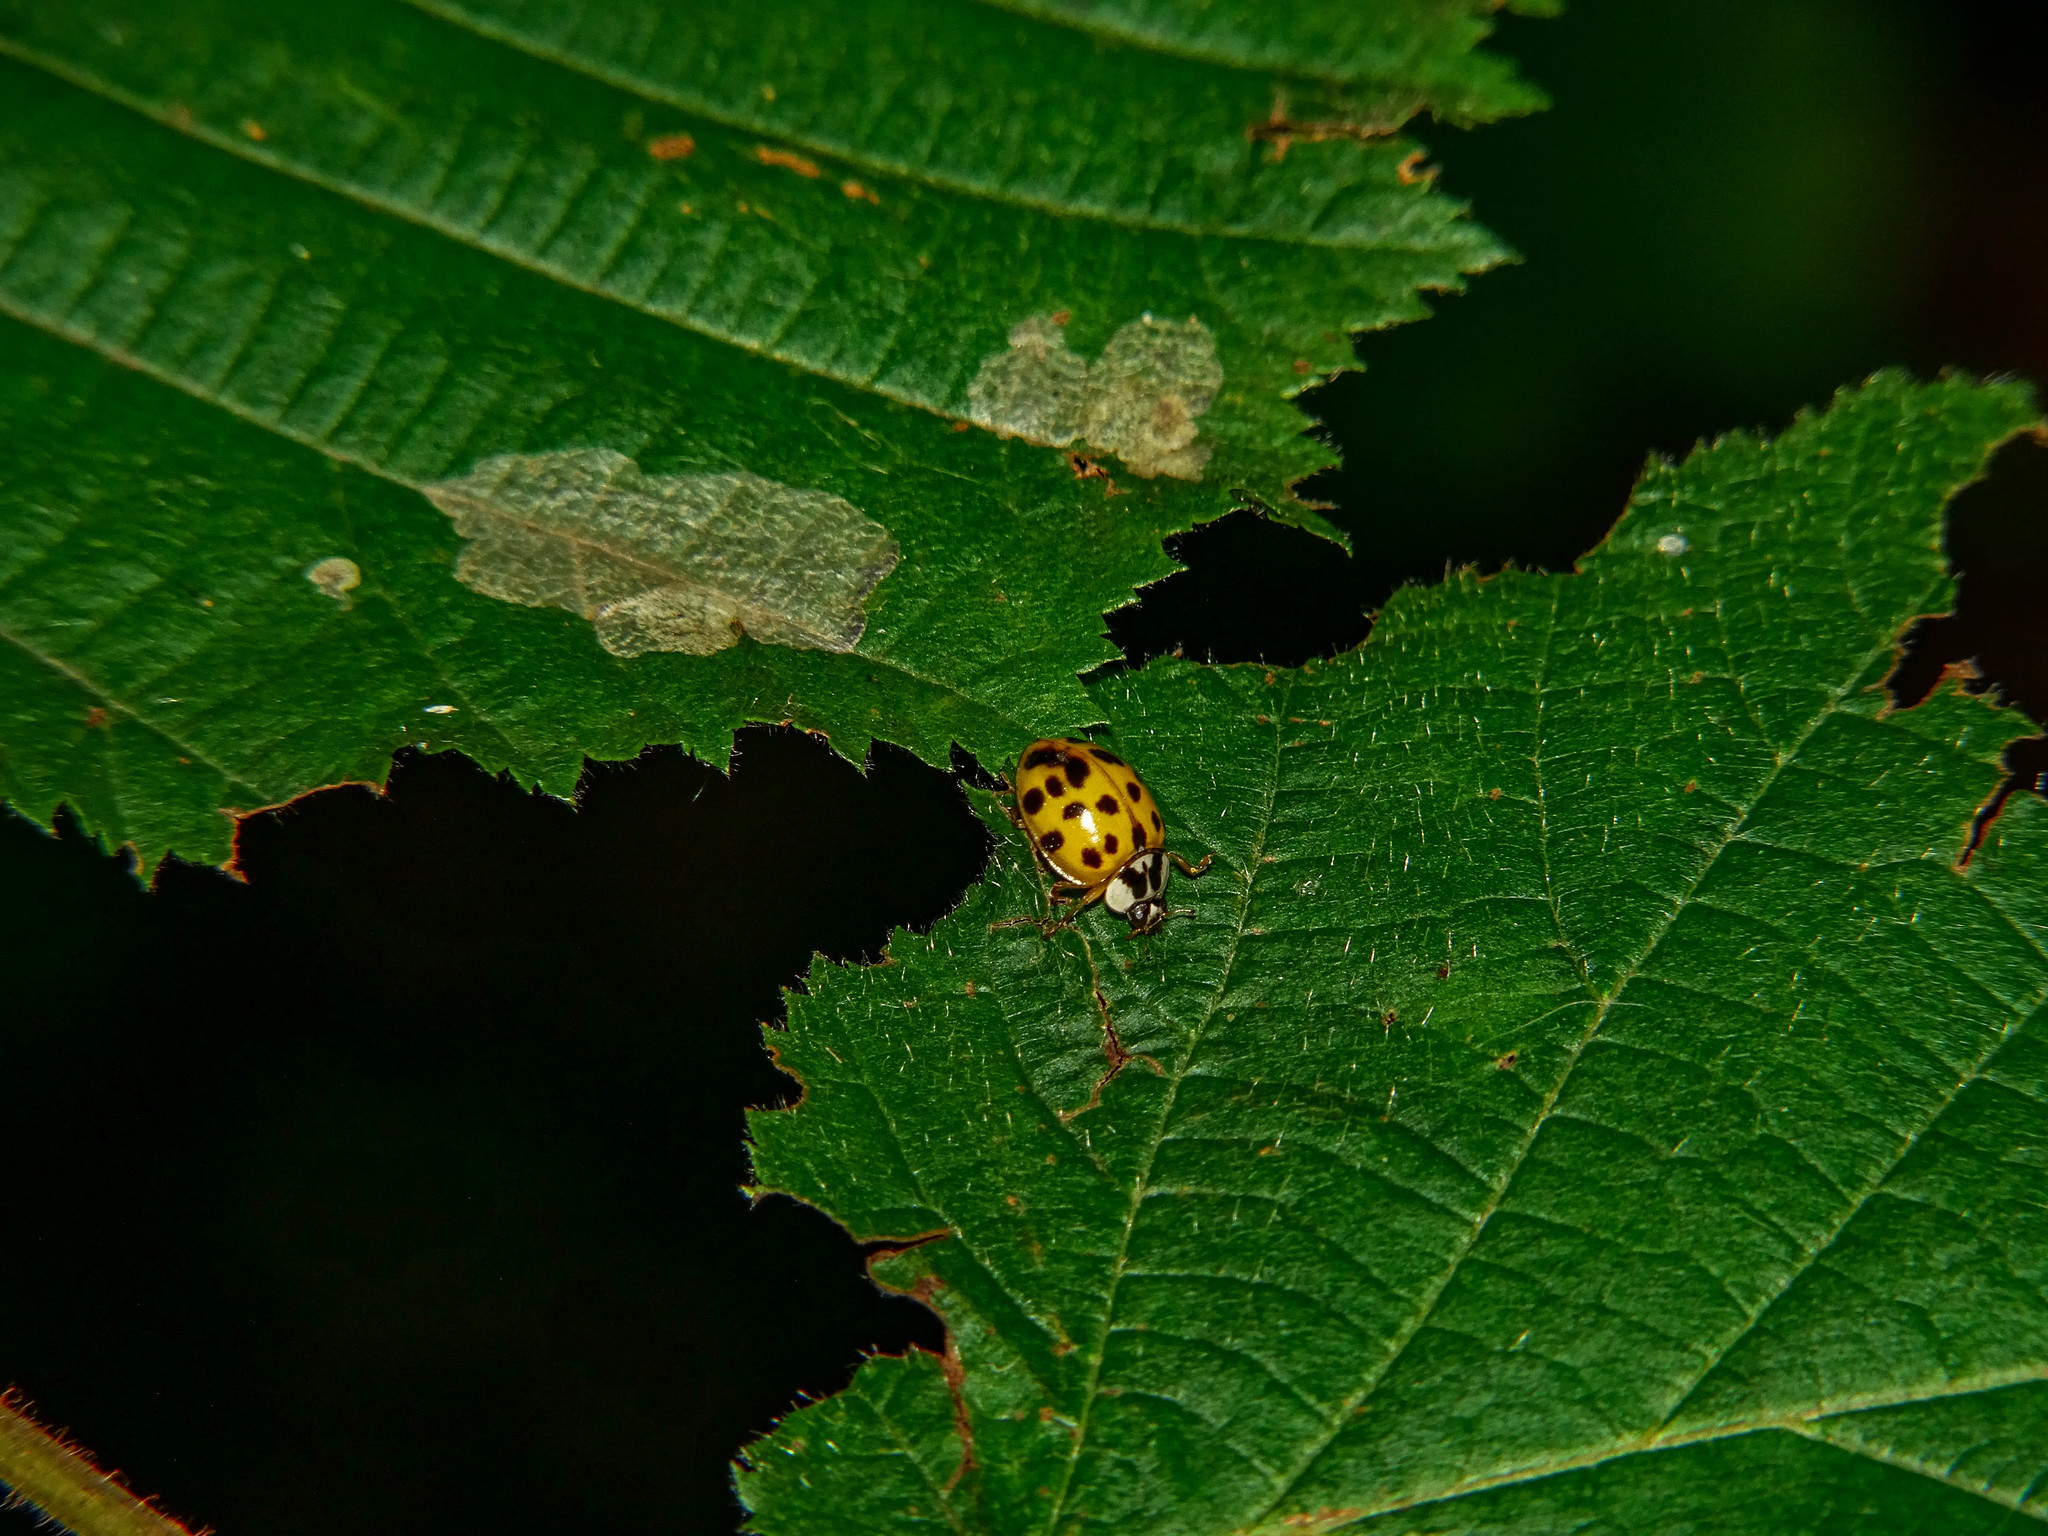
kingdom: Animalia
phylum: Arthropoda
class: Insecta
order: Coleoptera
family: Coccinellidae
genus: Harmonia
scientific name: Harmonia axyridis
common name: Harlequin ladybird
